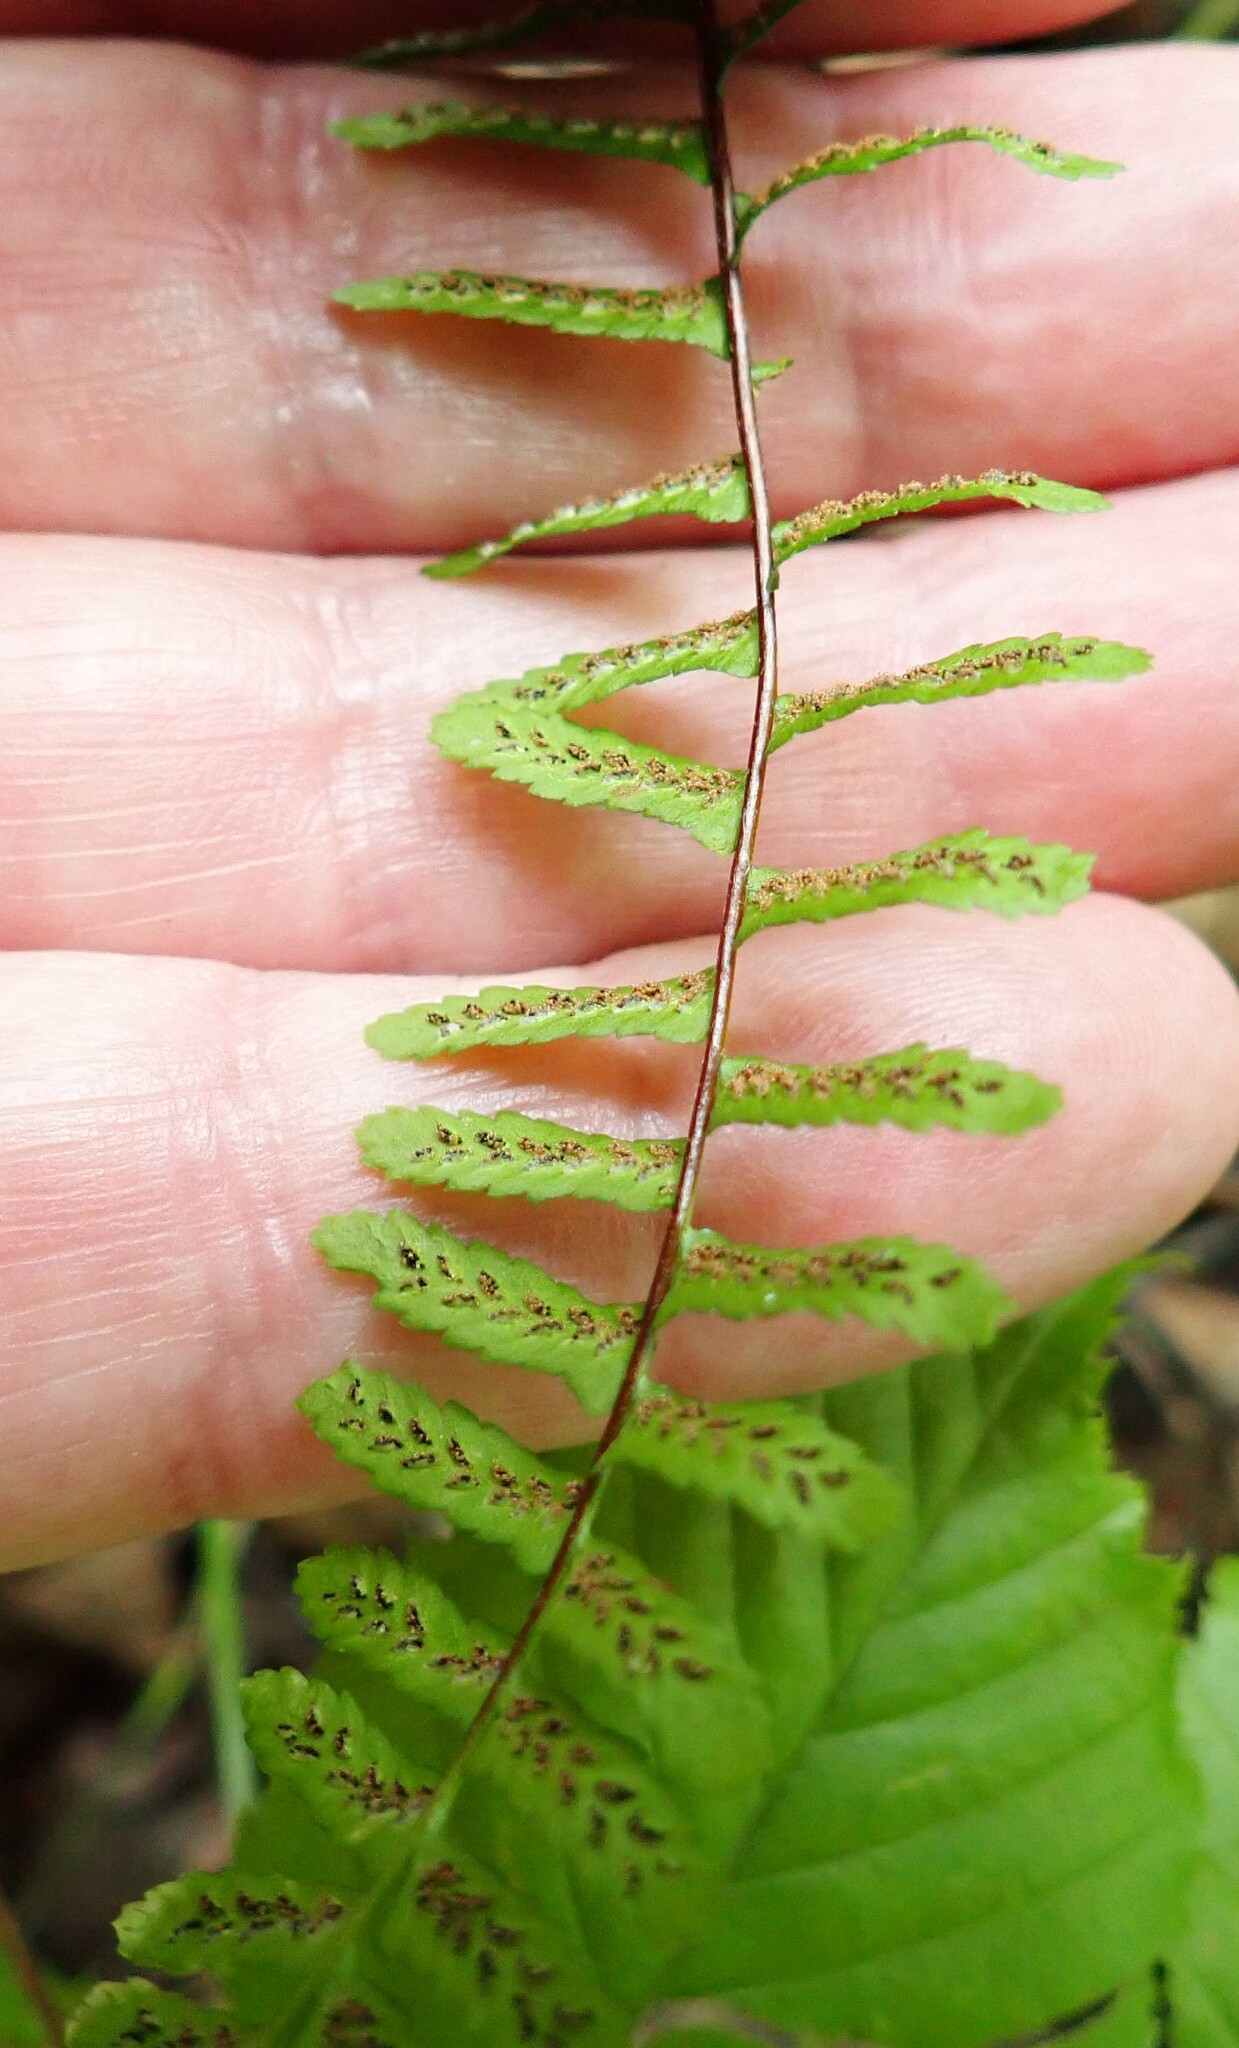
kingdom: Plantae
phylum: Tracheophyta
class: Polypodiopsida
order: Polypodiales
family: Aspleniaceae
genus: Asplenium
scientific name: Asplenium platyneuron
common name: Ebony spleenwort
